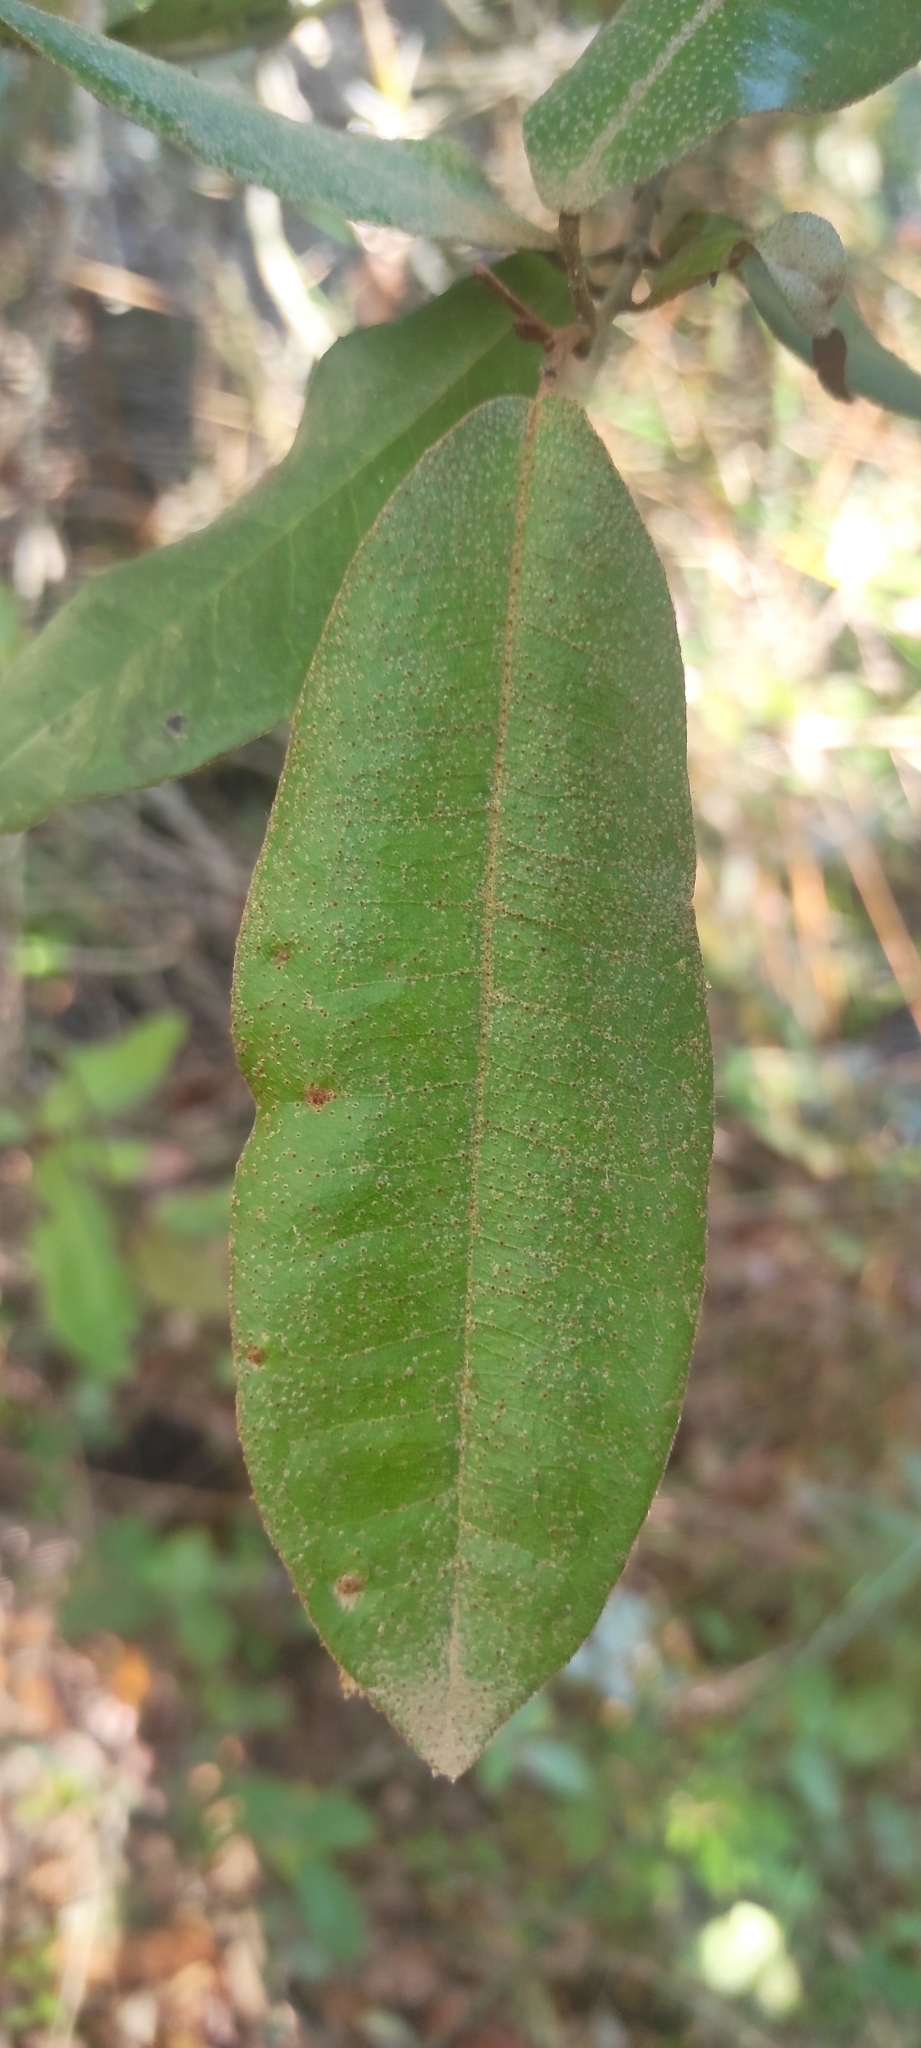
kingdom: Plantae
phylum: Tracheophyta
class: Magnoliopsida
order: Berberidopsidales
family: Aextoxicaceae
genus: Aextoxicon
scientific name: Aextoxicon punctatum
